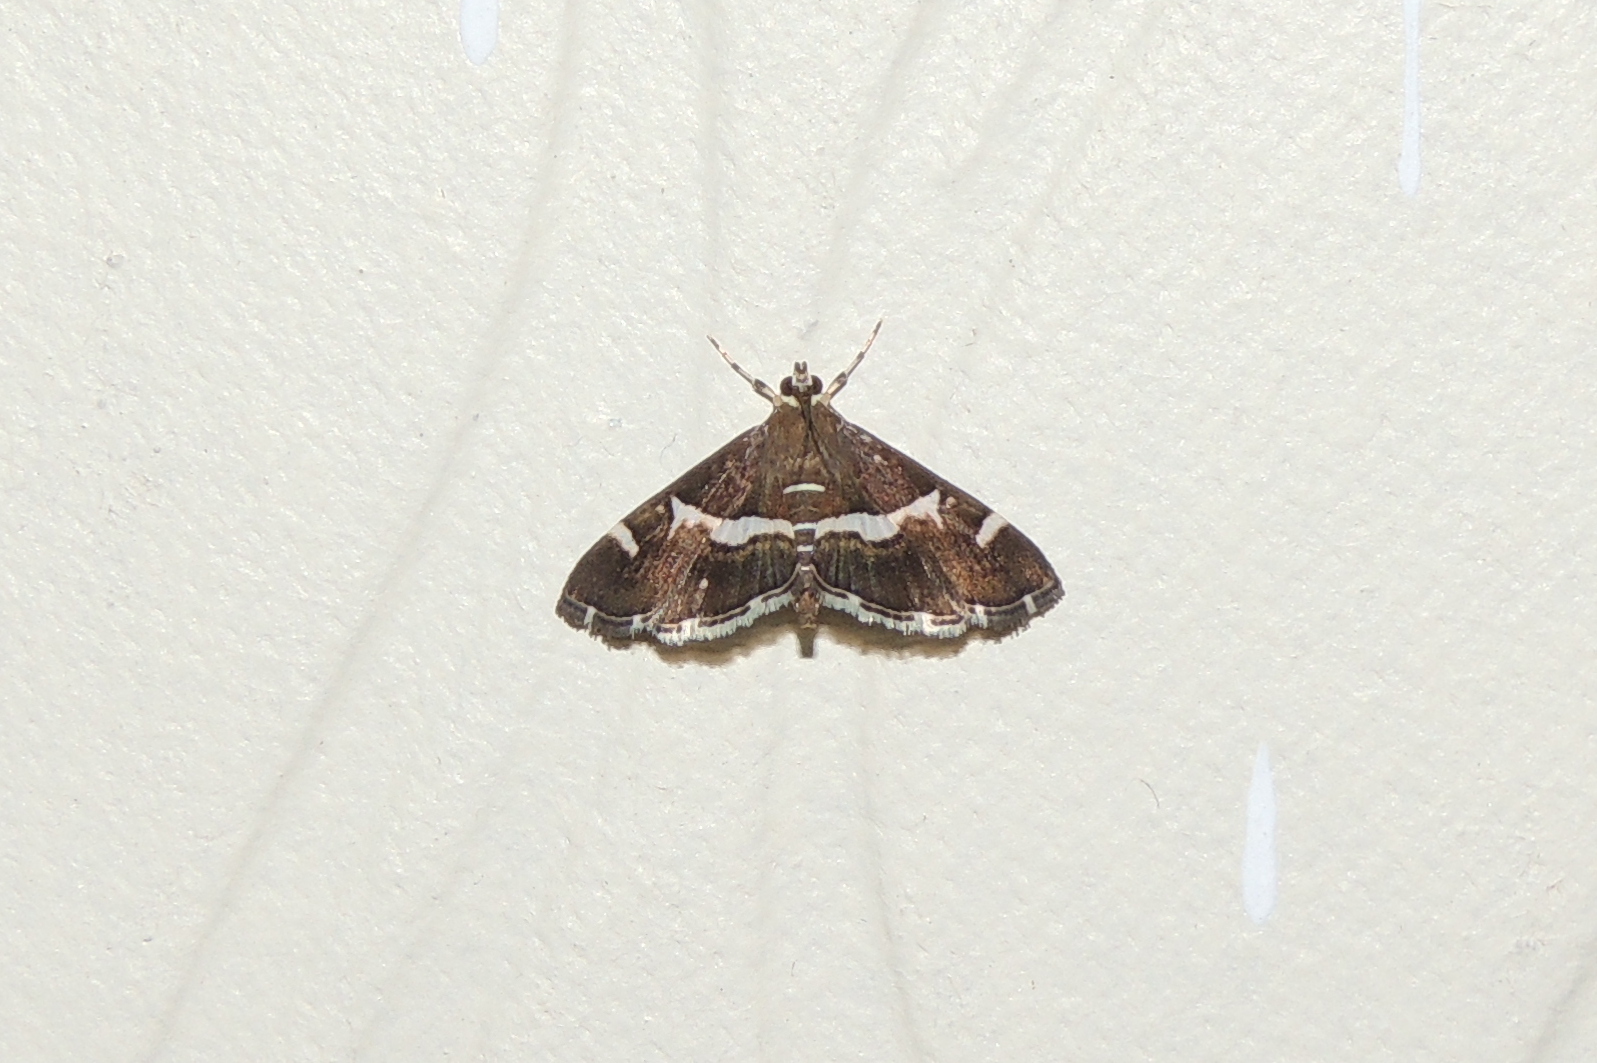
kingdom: Animalia
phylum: Arthropoda
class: Insecta
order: Lepidoptera
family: Crambidae
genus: Spoladea
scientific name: Spoladea recurvalis
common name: Beet webworm moth
